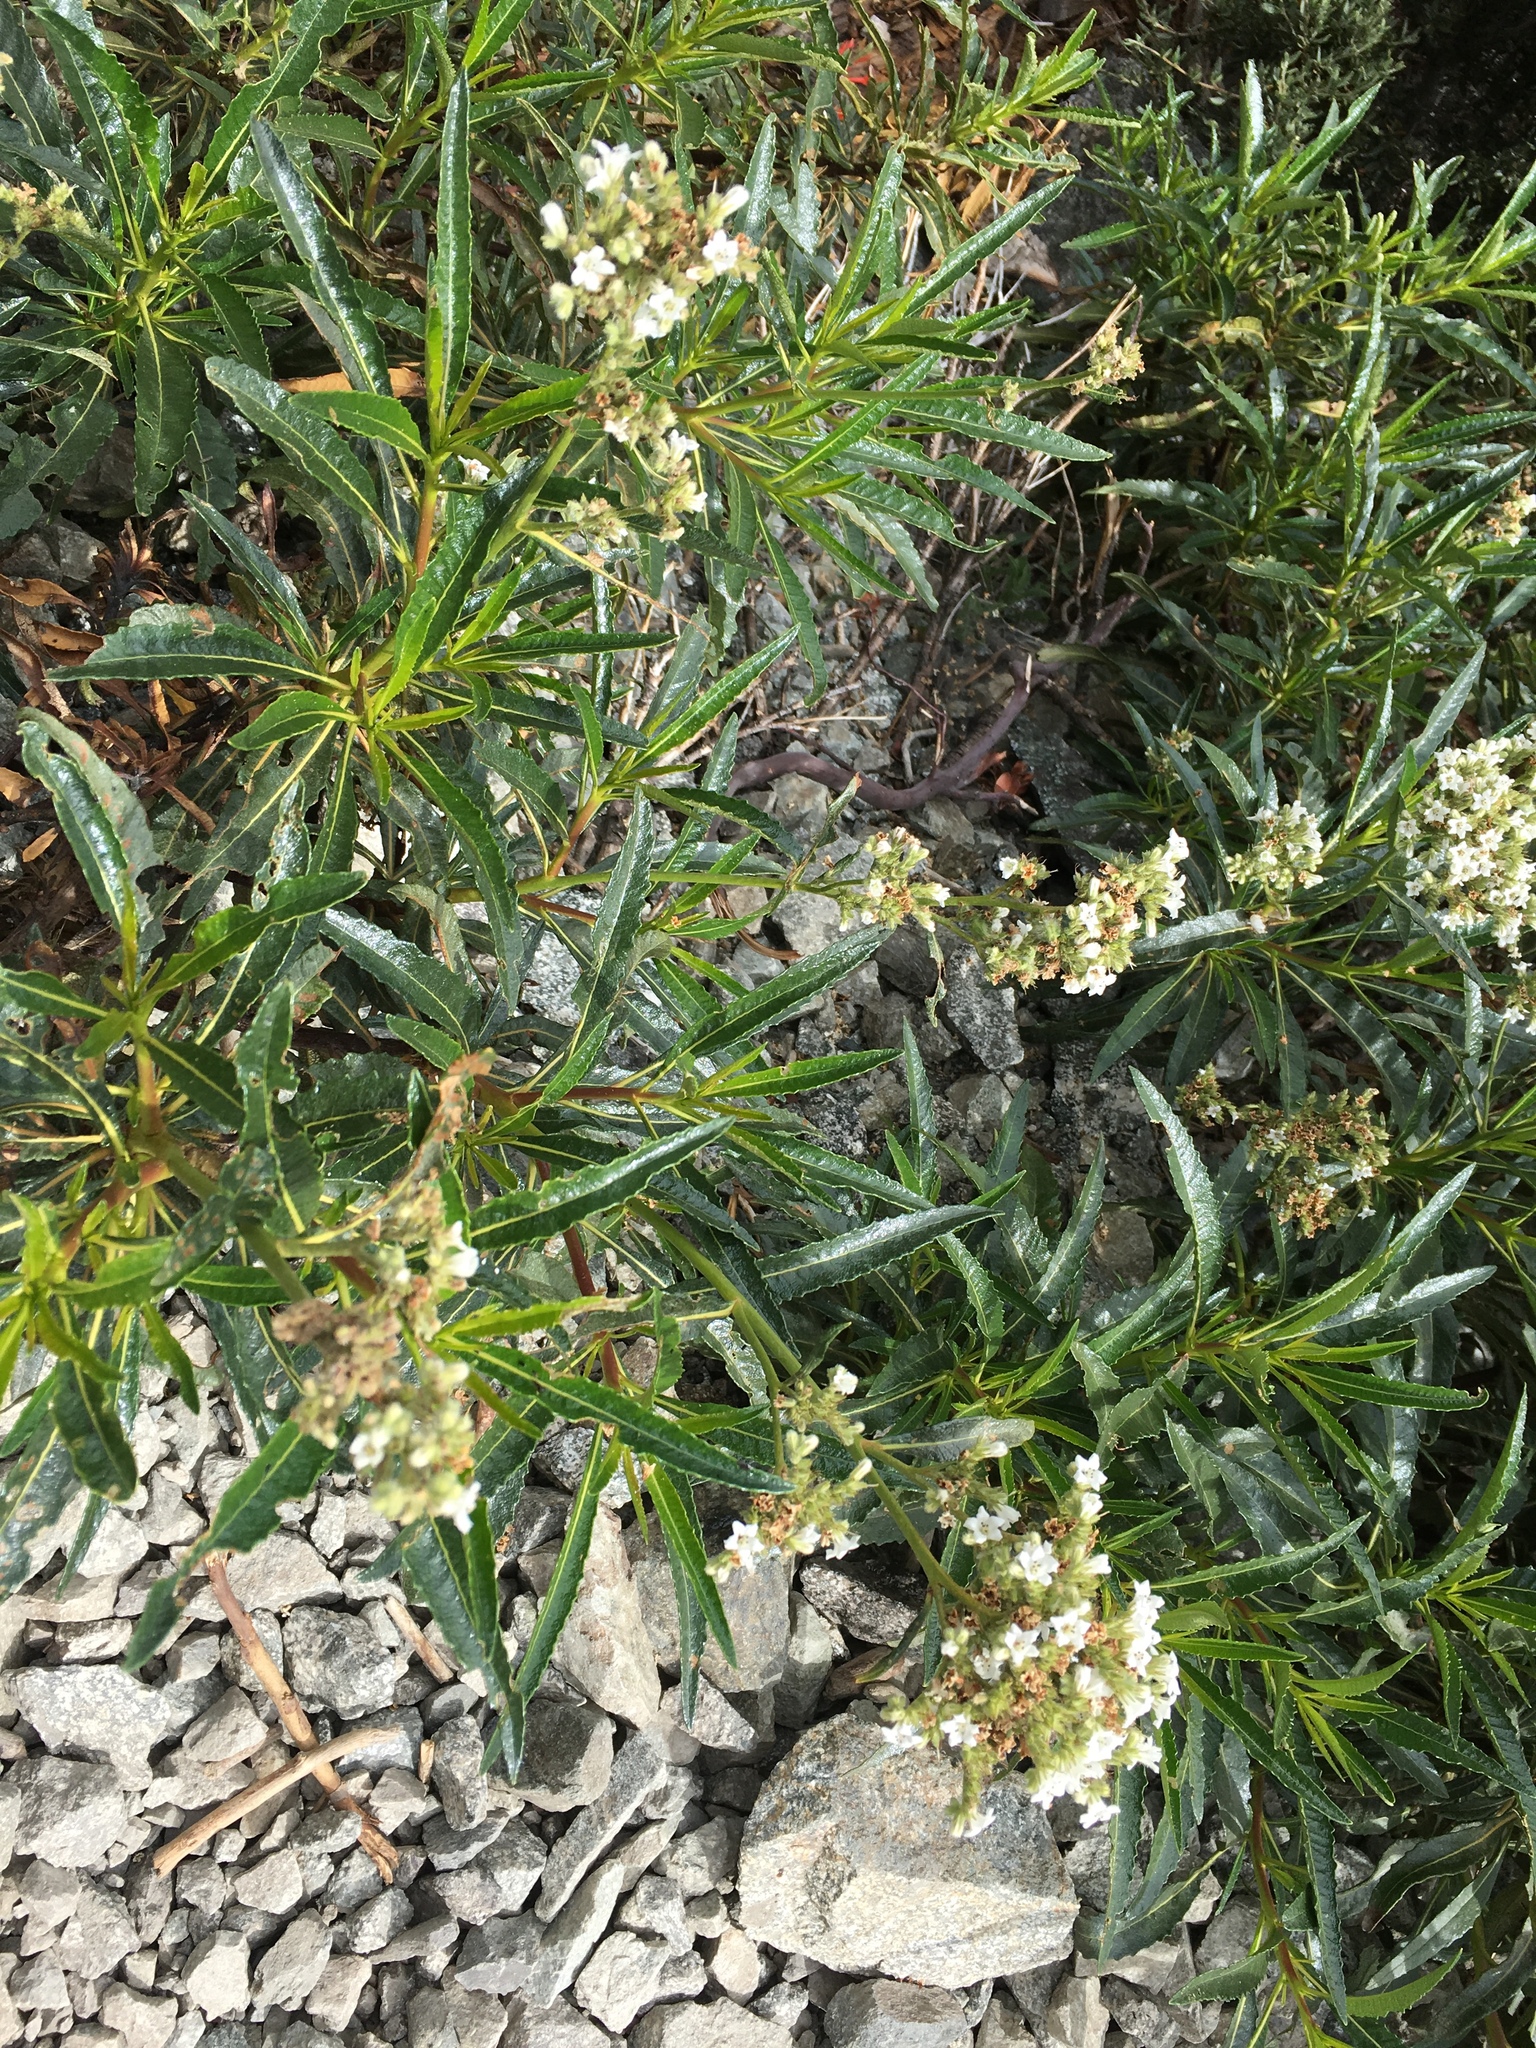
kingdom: Plantae
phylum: Tracheophyta
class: Magnoliopsida
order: Boraginales
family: Namaceae
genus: Eriodictyon
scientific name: Eriodictyon trichocalyx
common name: Hairy yerba-santa
